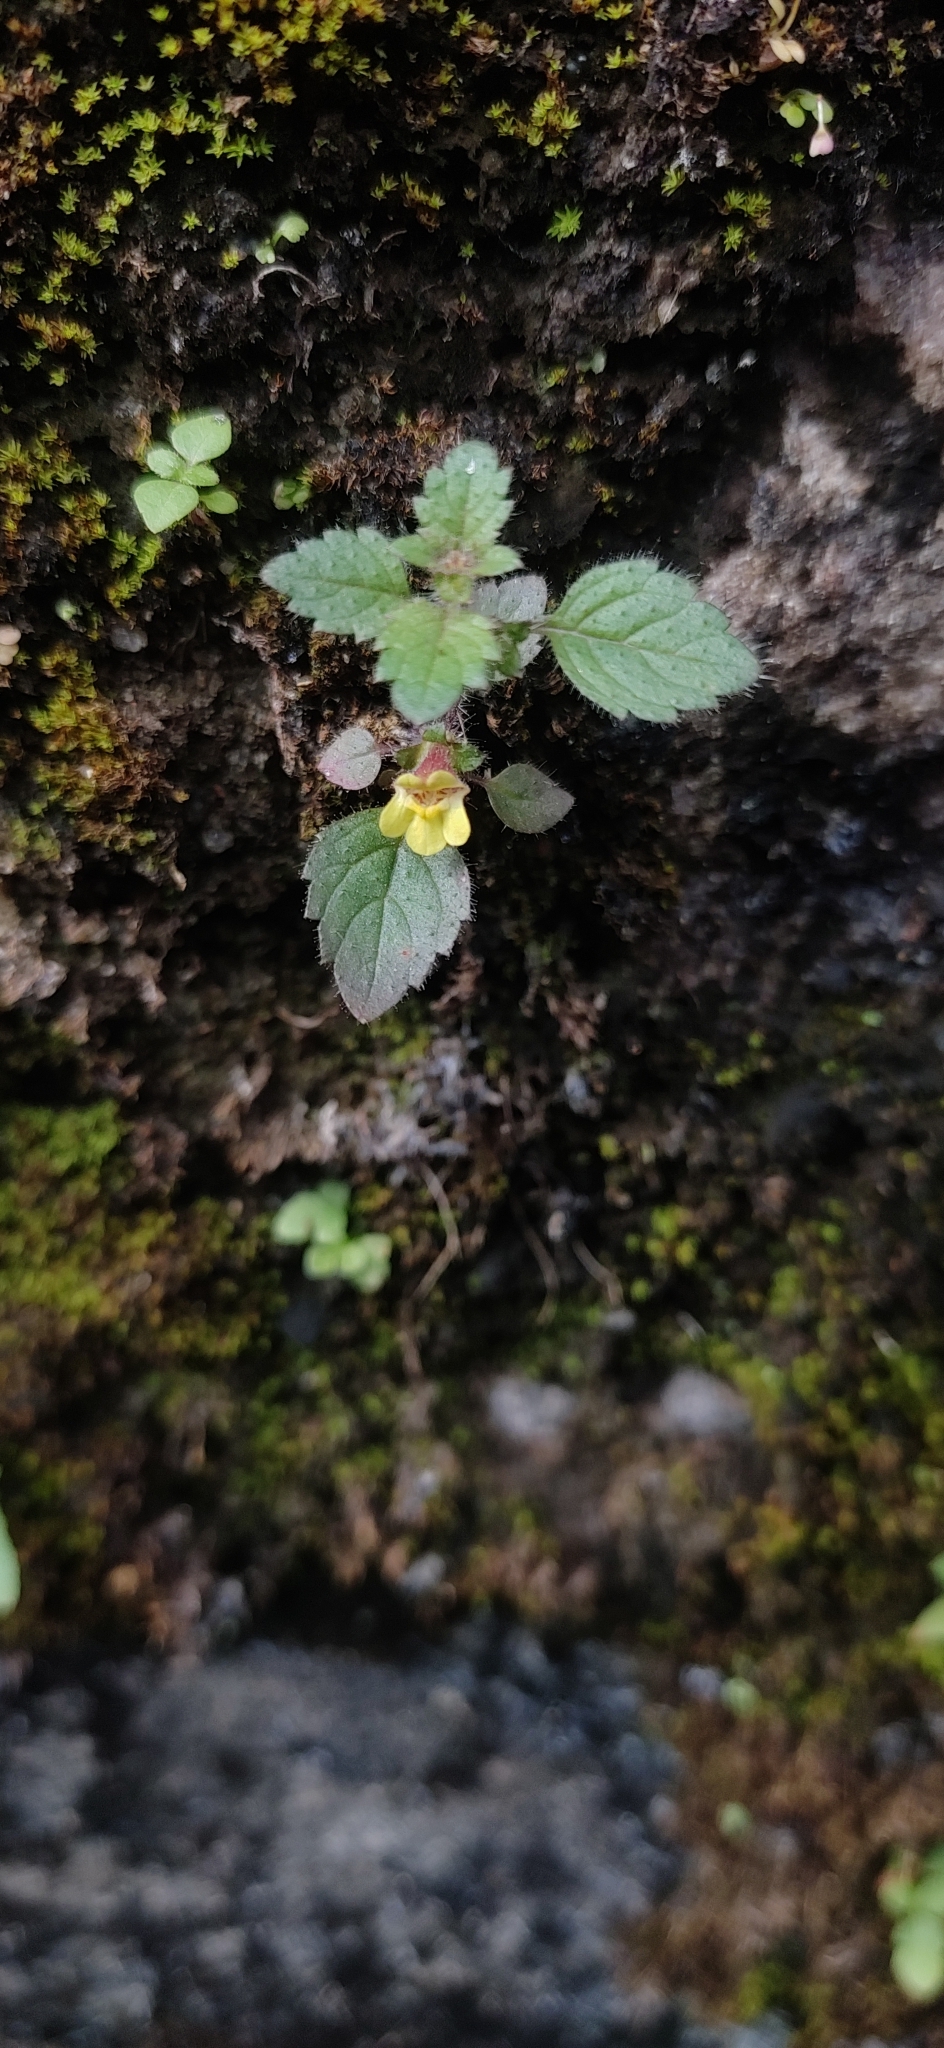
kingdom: Plantae
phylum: Tracheophyta
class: Magnoliopsida
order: Lamiales
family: Orobanchaceae
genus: Lindenbergia
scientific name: Lindenbergia muraria
